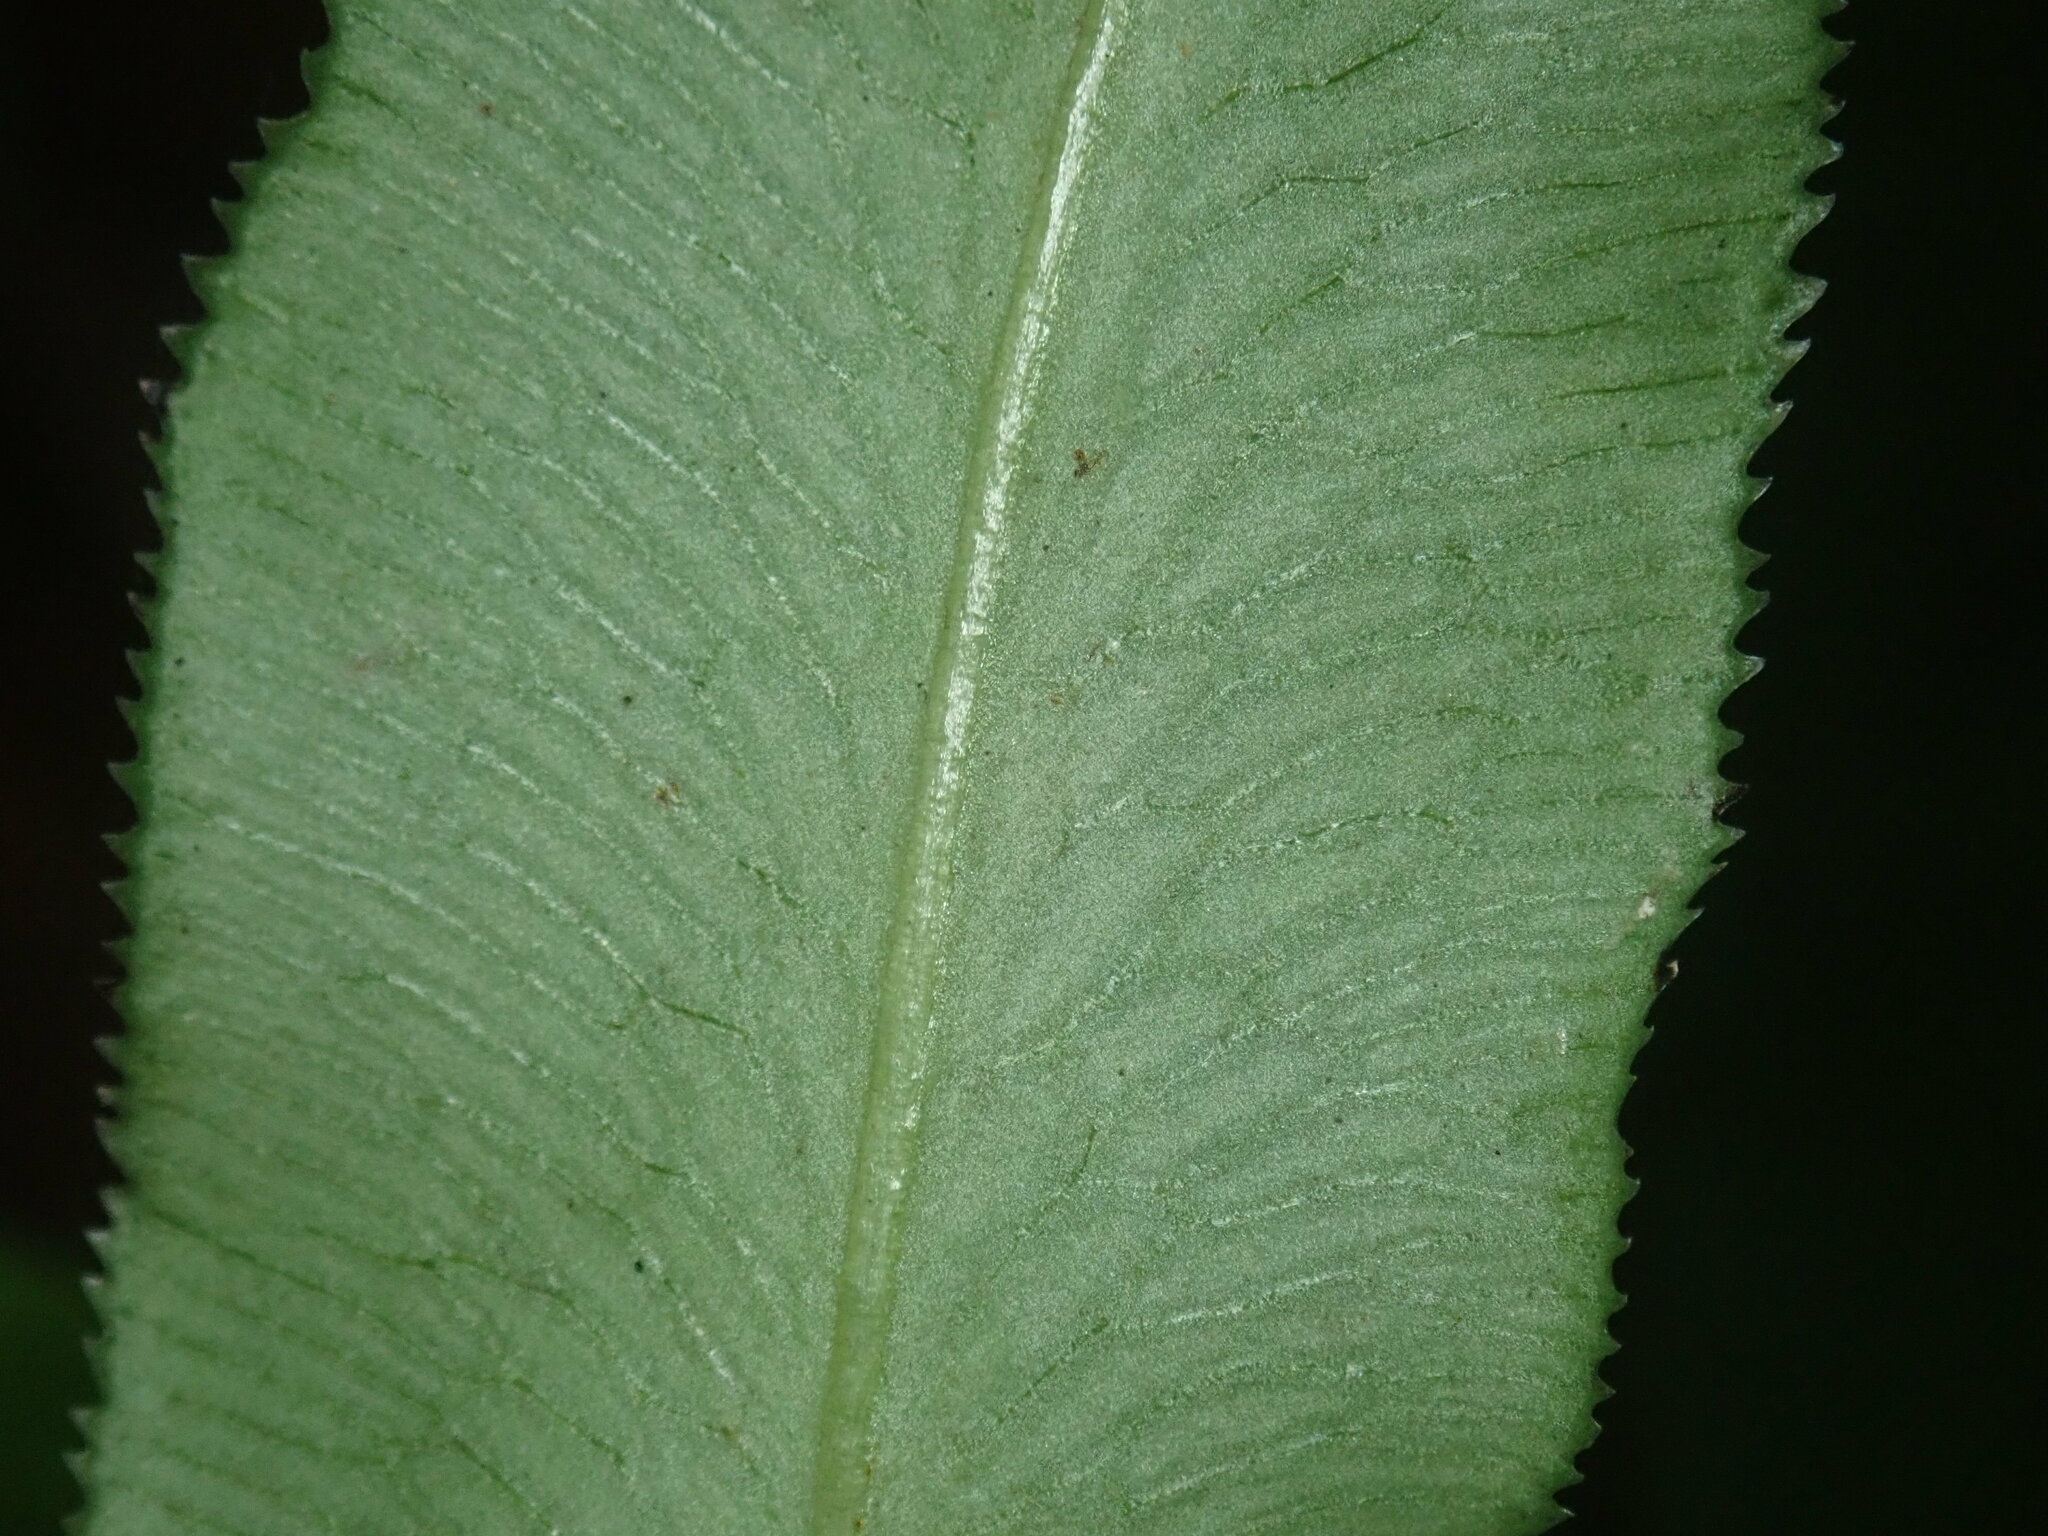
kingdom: Plantae
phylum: Tracheophyta
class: Polypodiopsida
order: Polypodiales
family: Pteridaceae
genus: Coniogramme
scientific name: Coniogramme japonica
